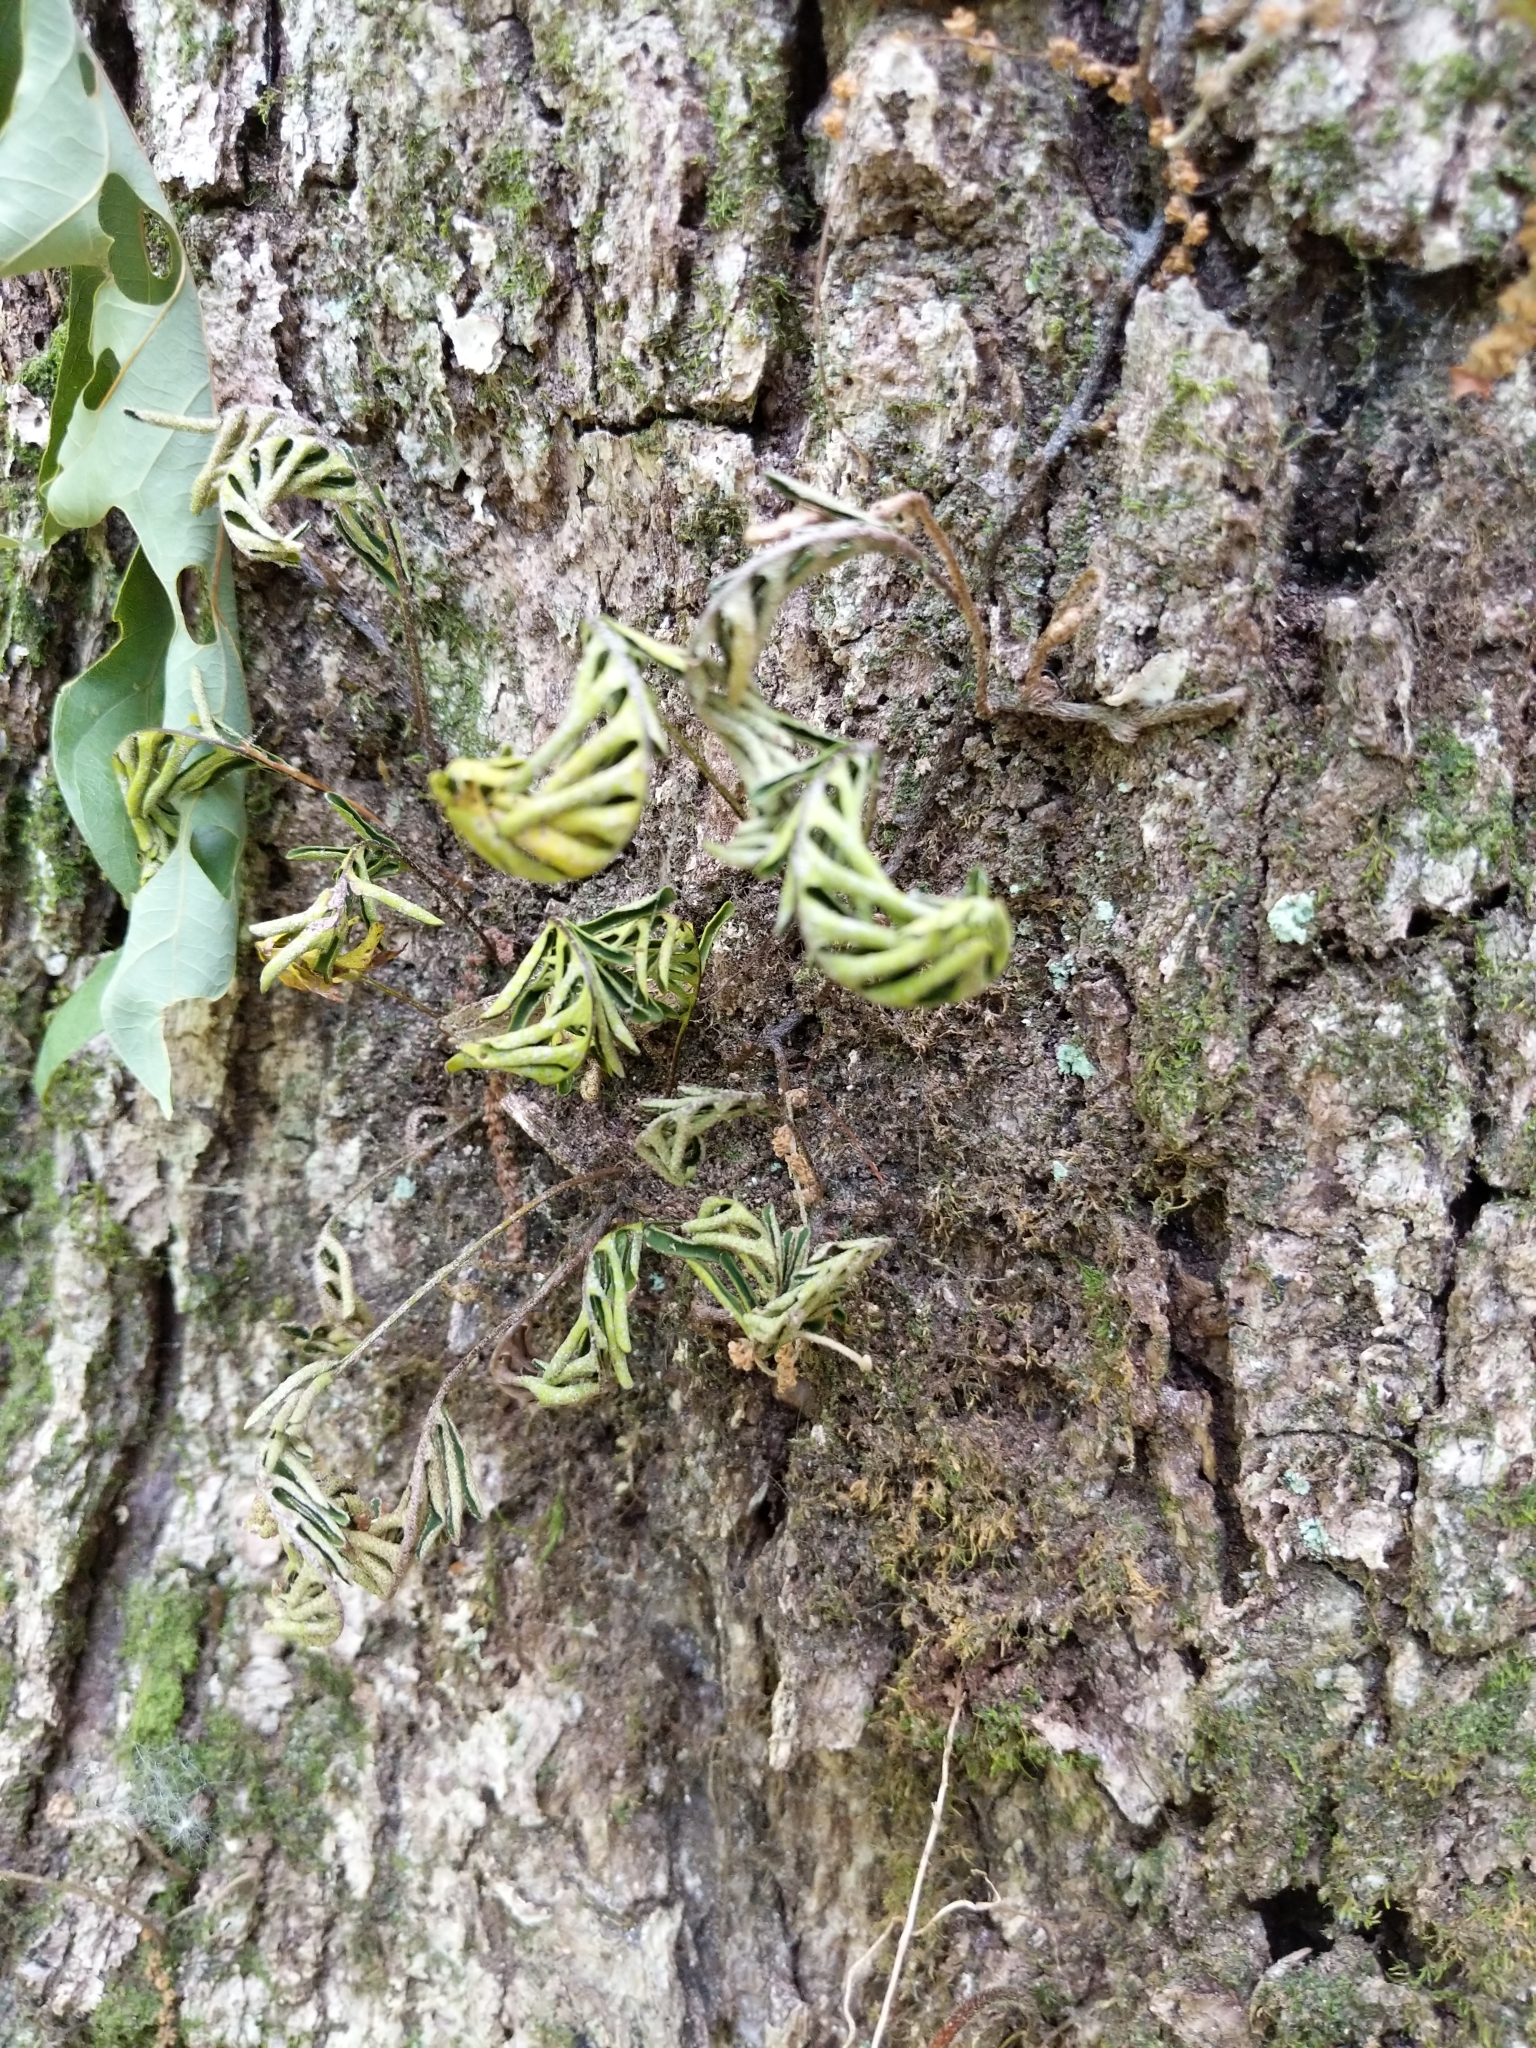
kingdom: Plantae
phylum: Tracheophyta
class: Polypodiopsida
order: Polypodiales
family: Polypodiaceae
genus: Pleopeltis
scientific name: Pleopeltis michauxiana
